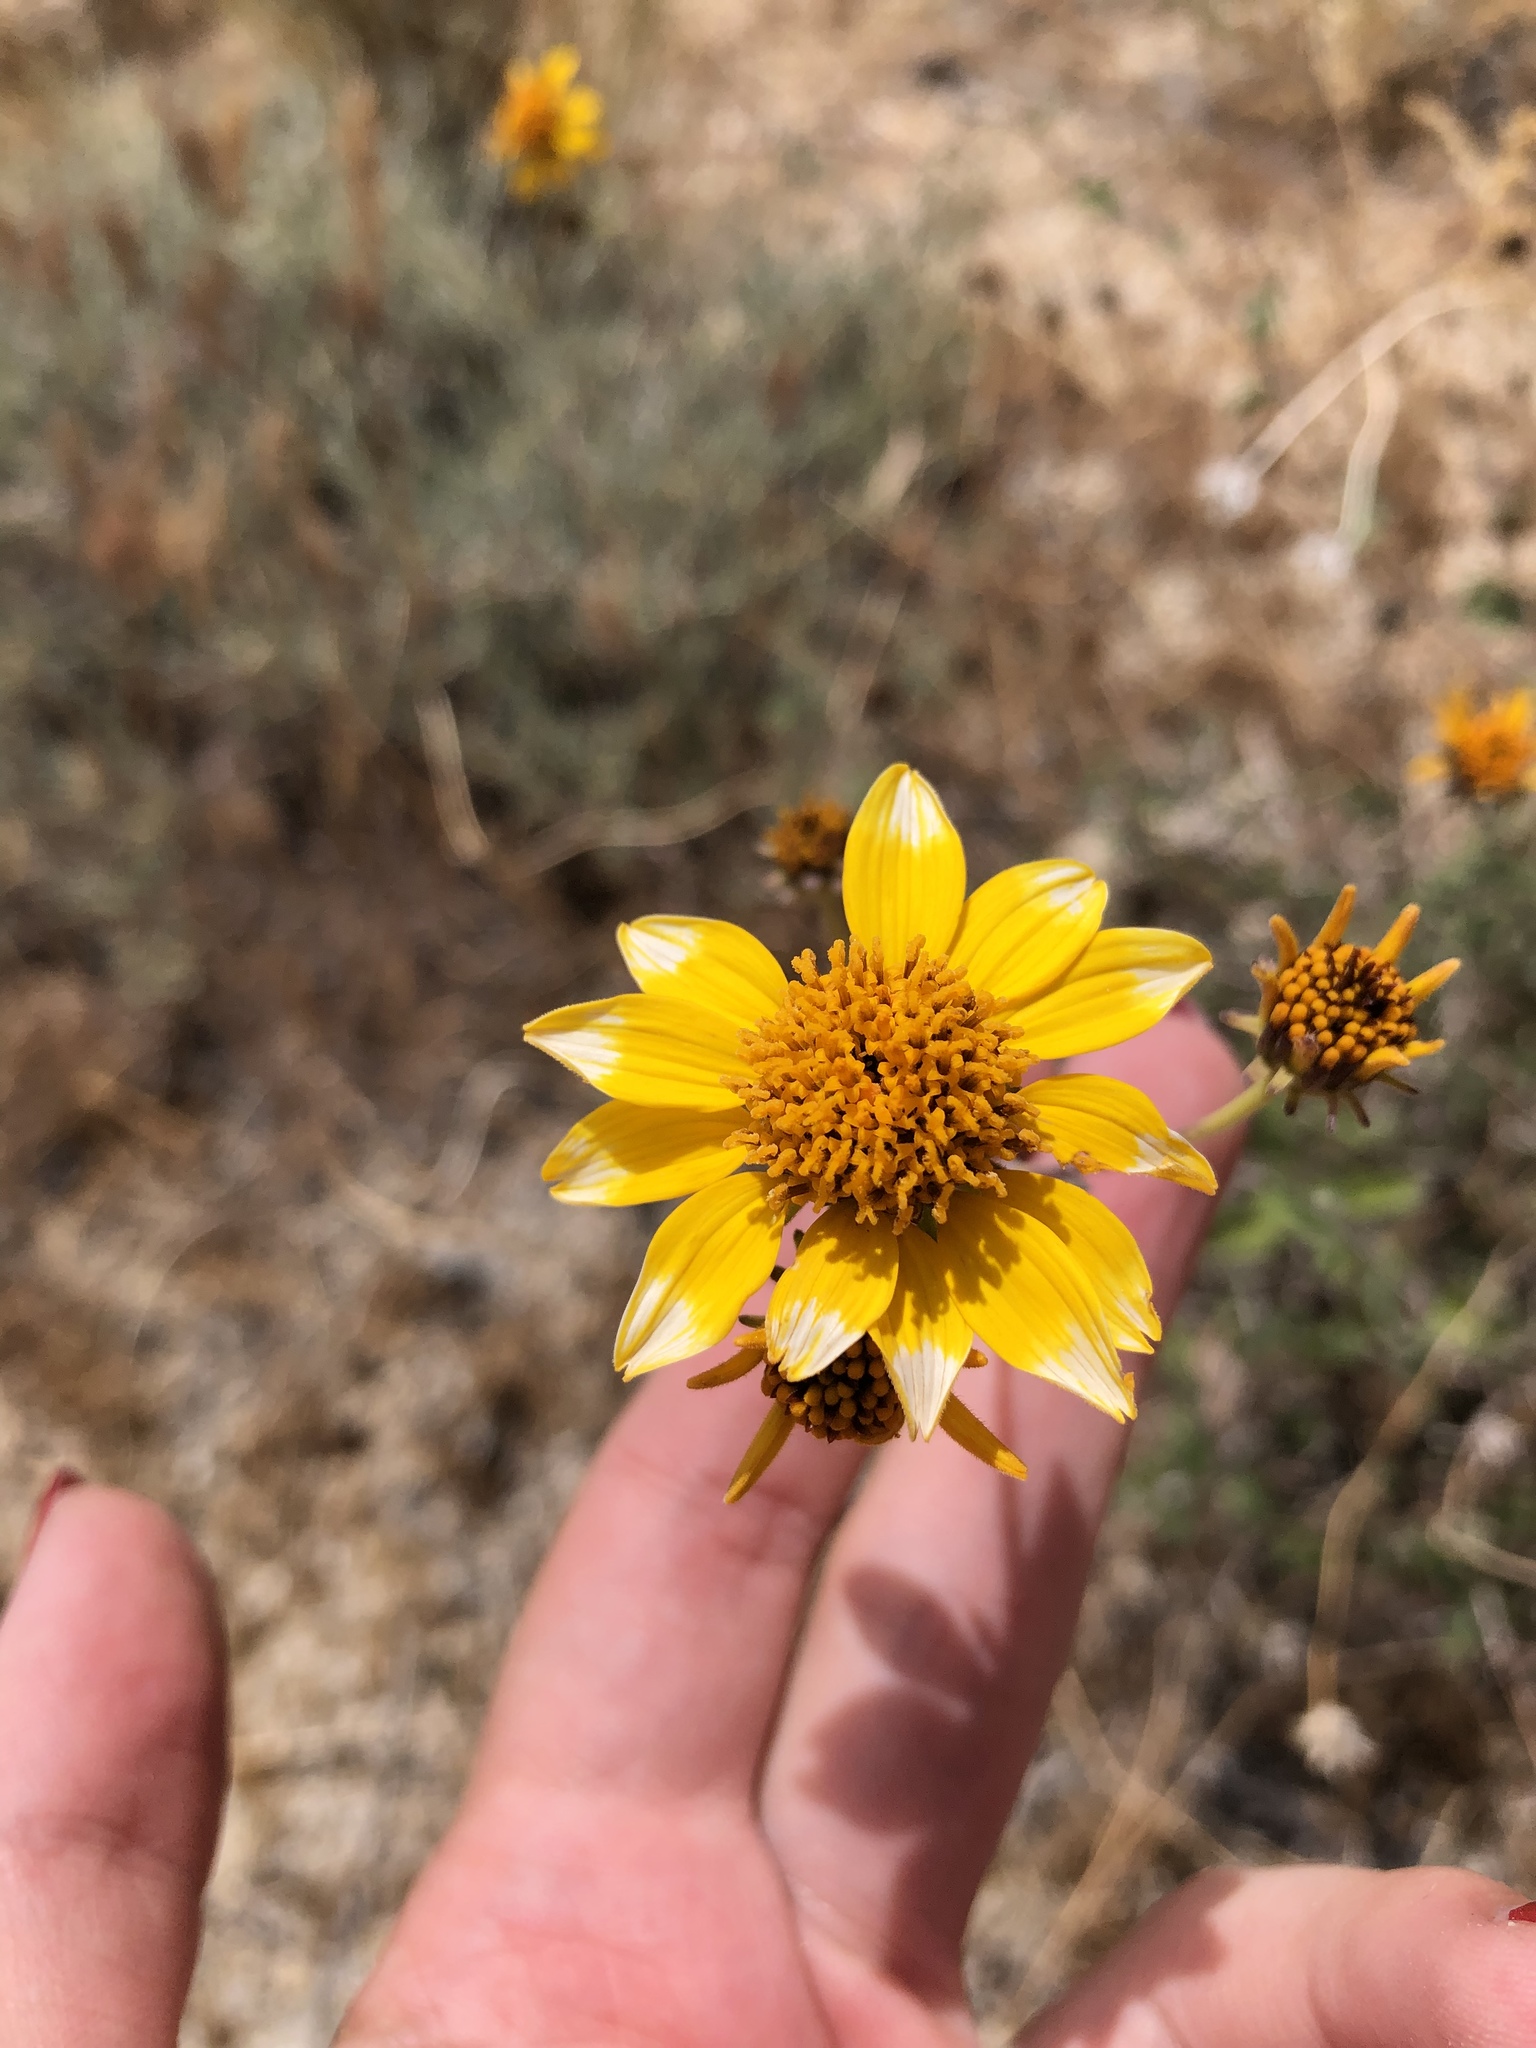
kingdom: Plantae
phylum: Tracheophyta
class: Magnoliopsida
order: Asterales
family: Asteraceae
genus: Bahiopsis
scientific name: Bahiopsis parishii
